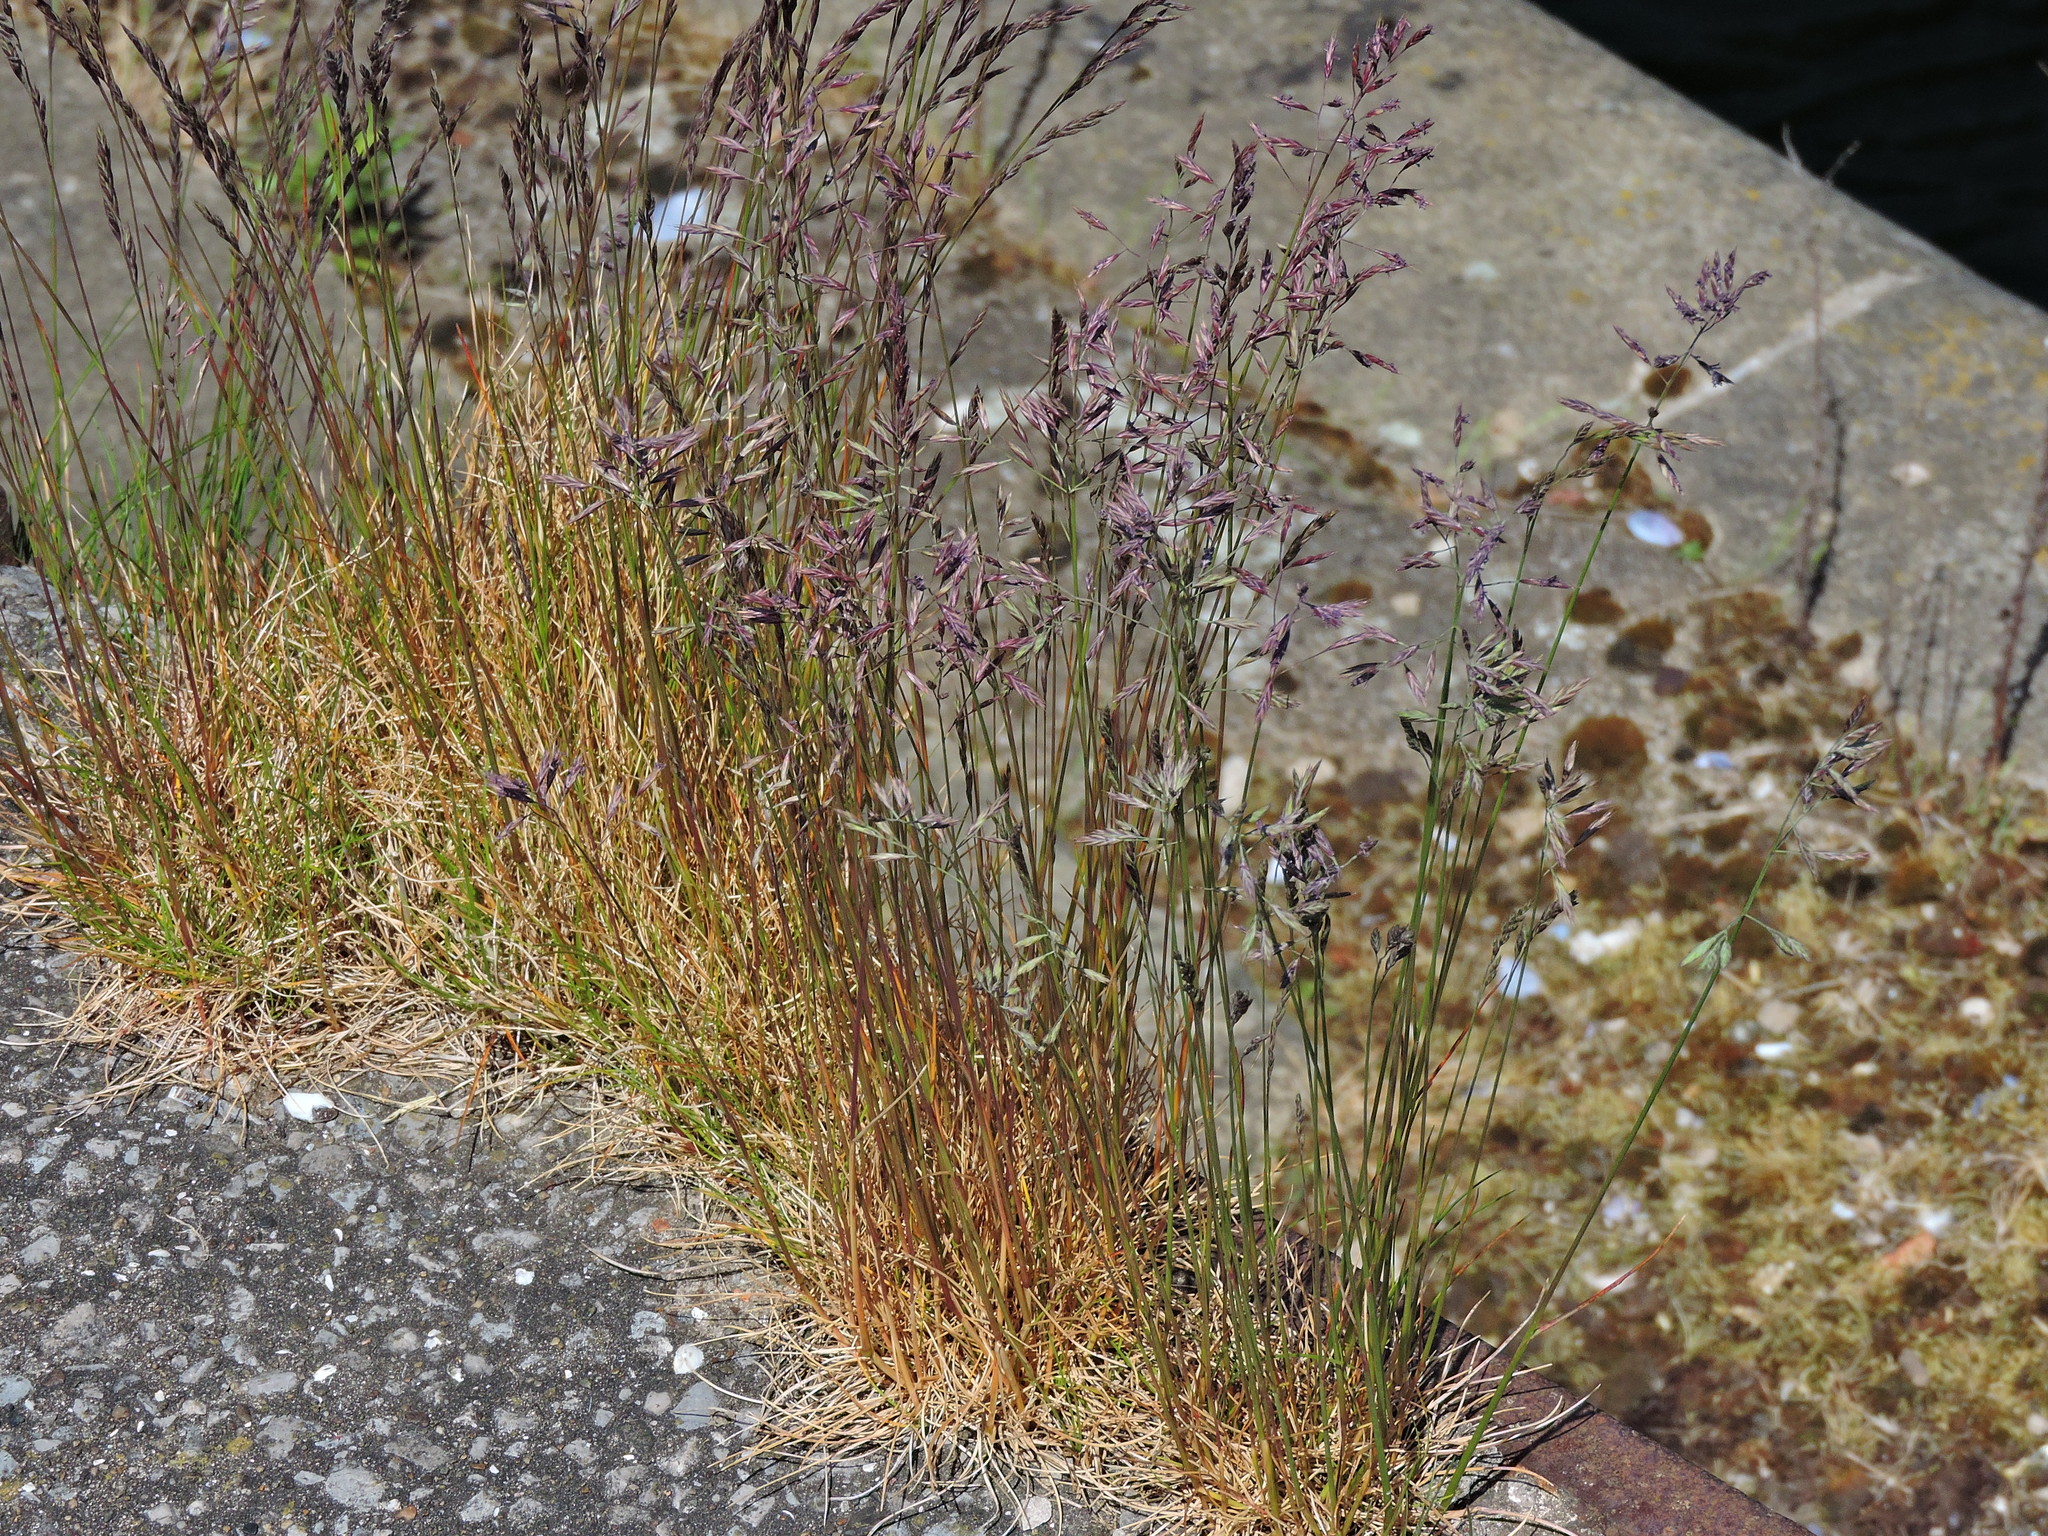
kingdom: Plantae
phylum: Tracheophyta
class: Liliopsida
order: Poales
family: Poaceae
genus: Festuca
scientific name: Festuca rubra
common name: Red fescue
